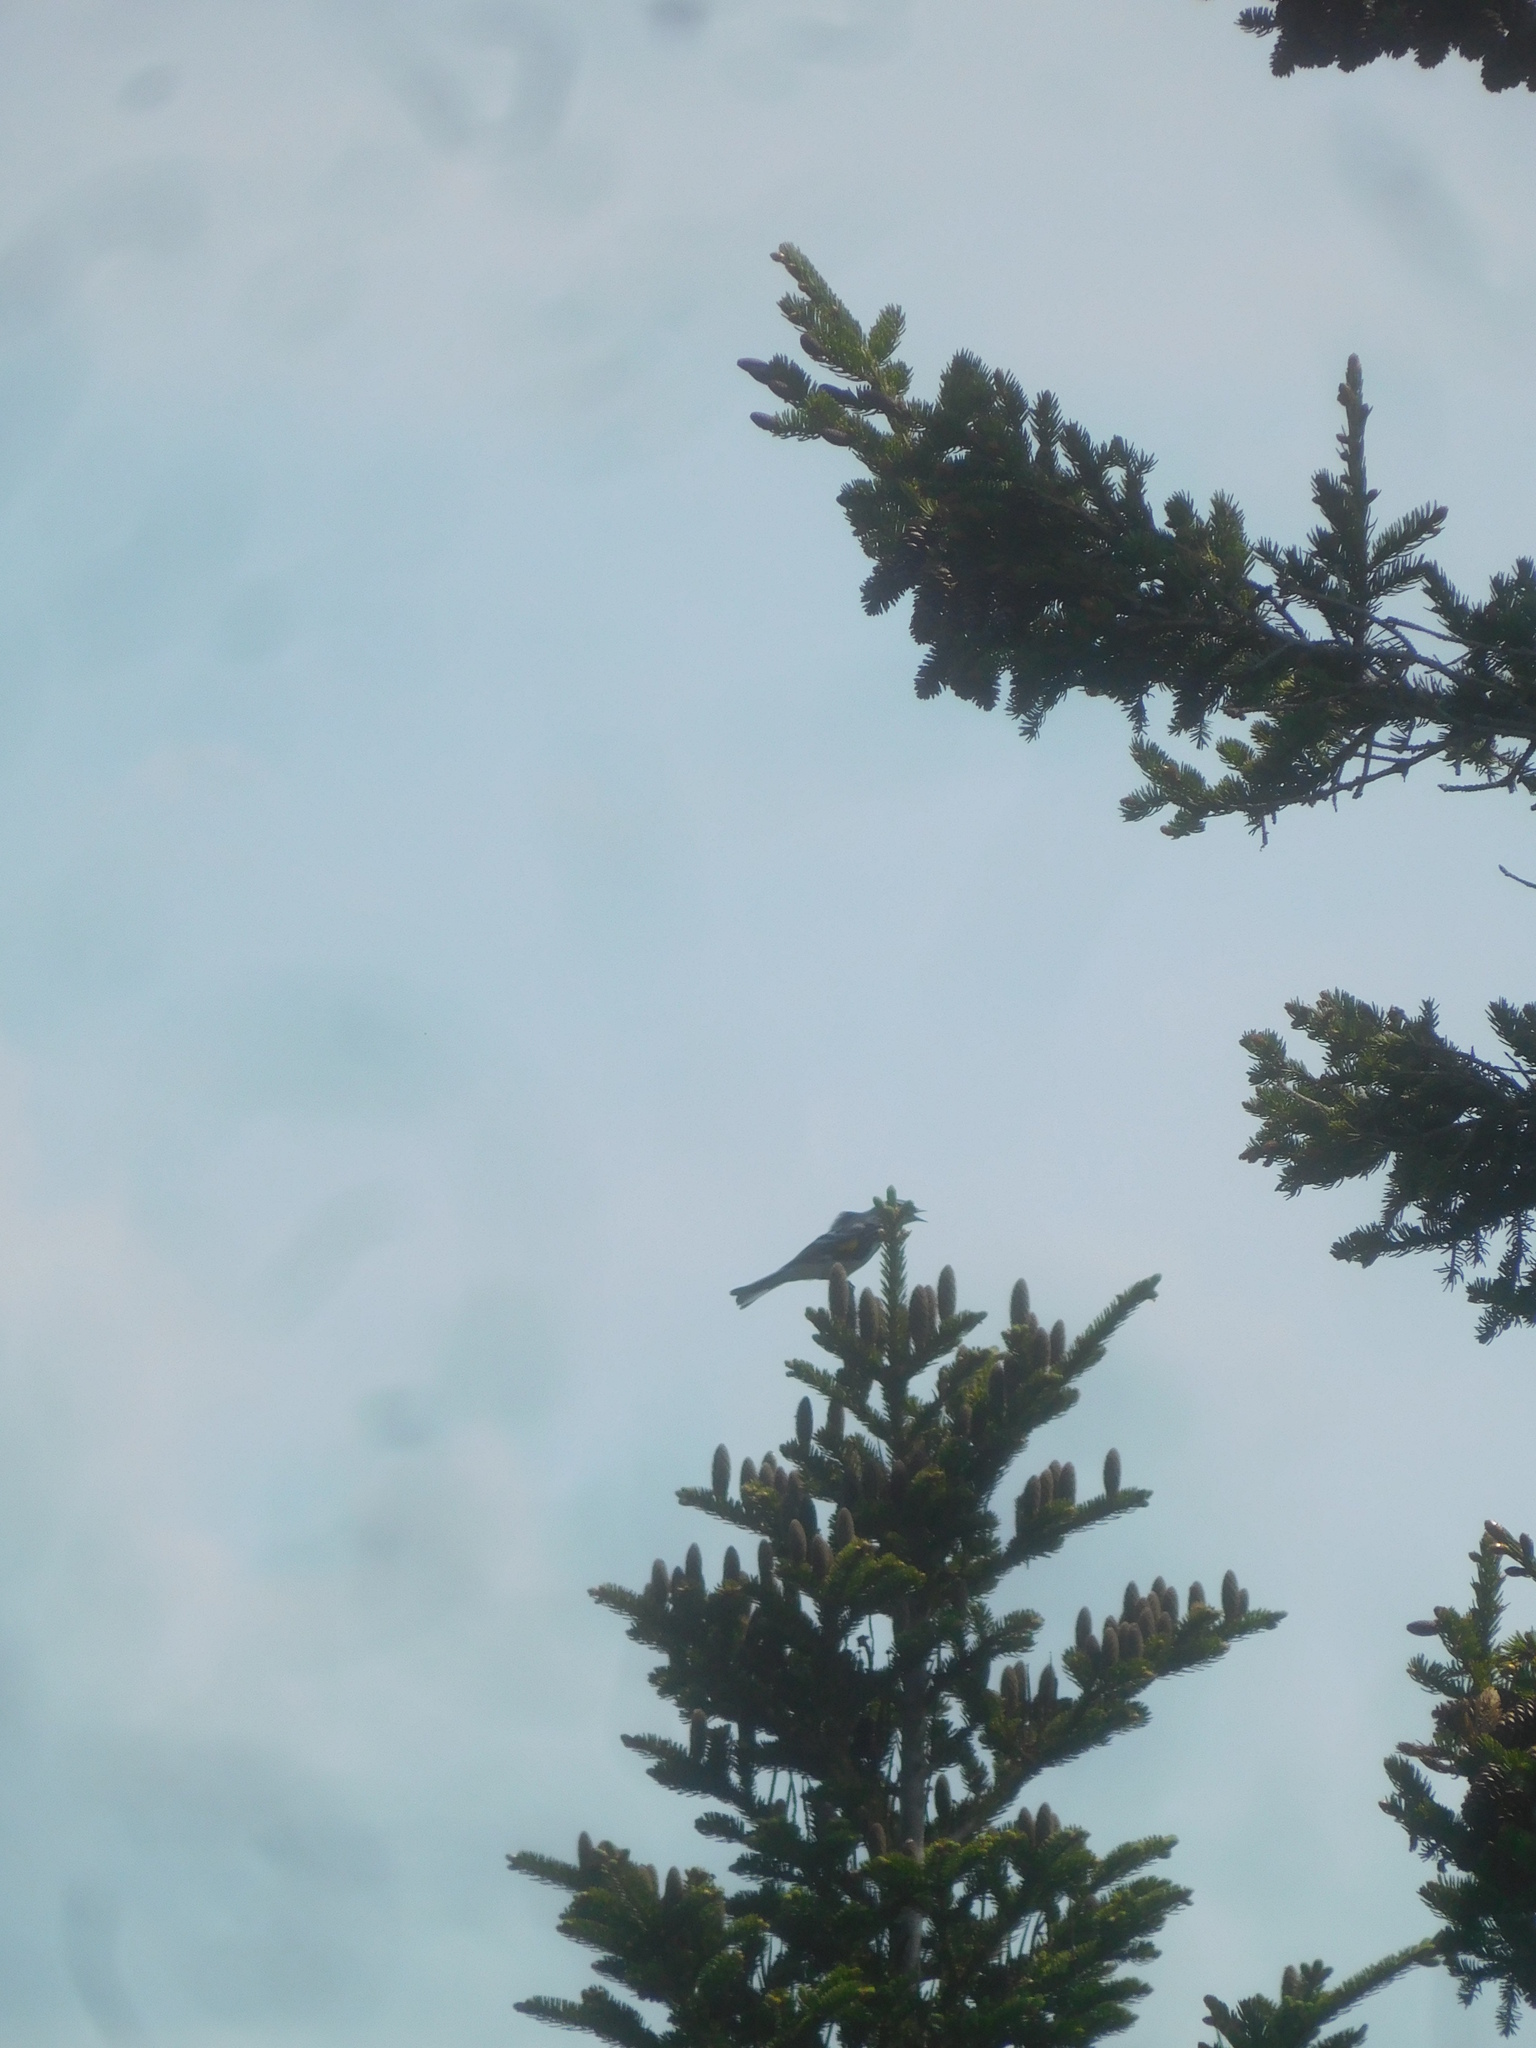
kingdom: Animalia
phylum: Chordata
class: Aves
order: Passeriformes
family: Parulidae
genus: Setophaga
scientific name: Setophaga coronata
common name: Myrtle warbler
